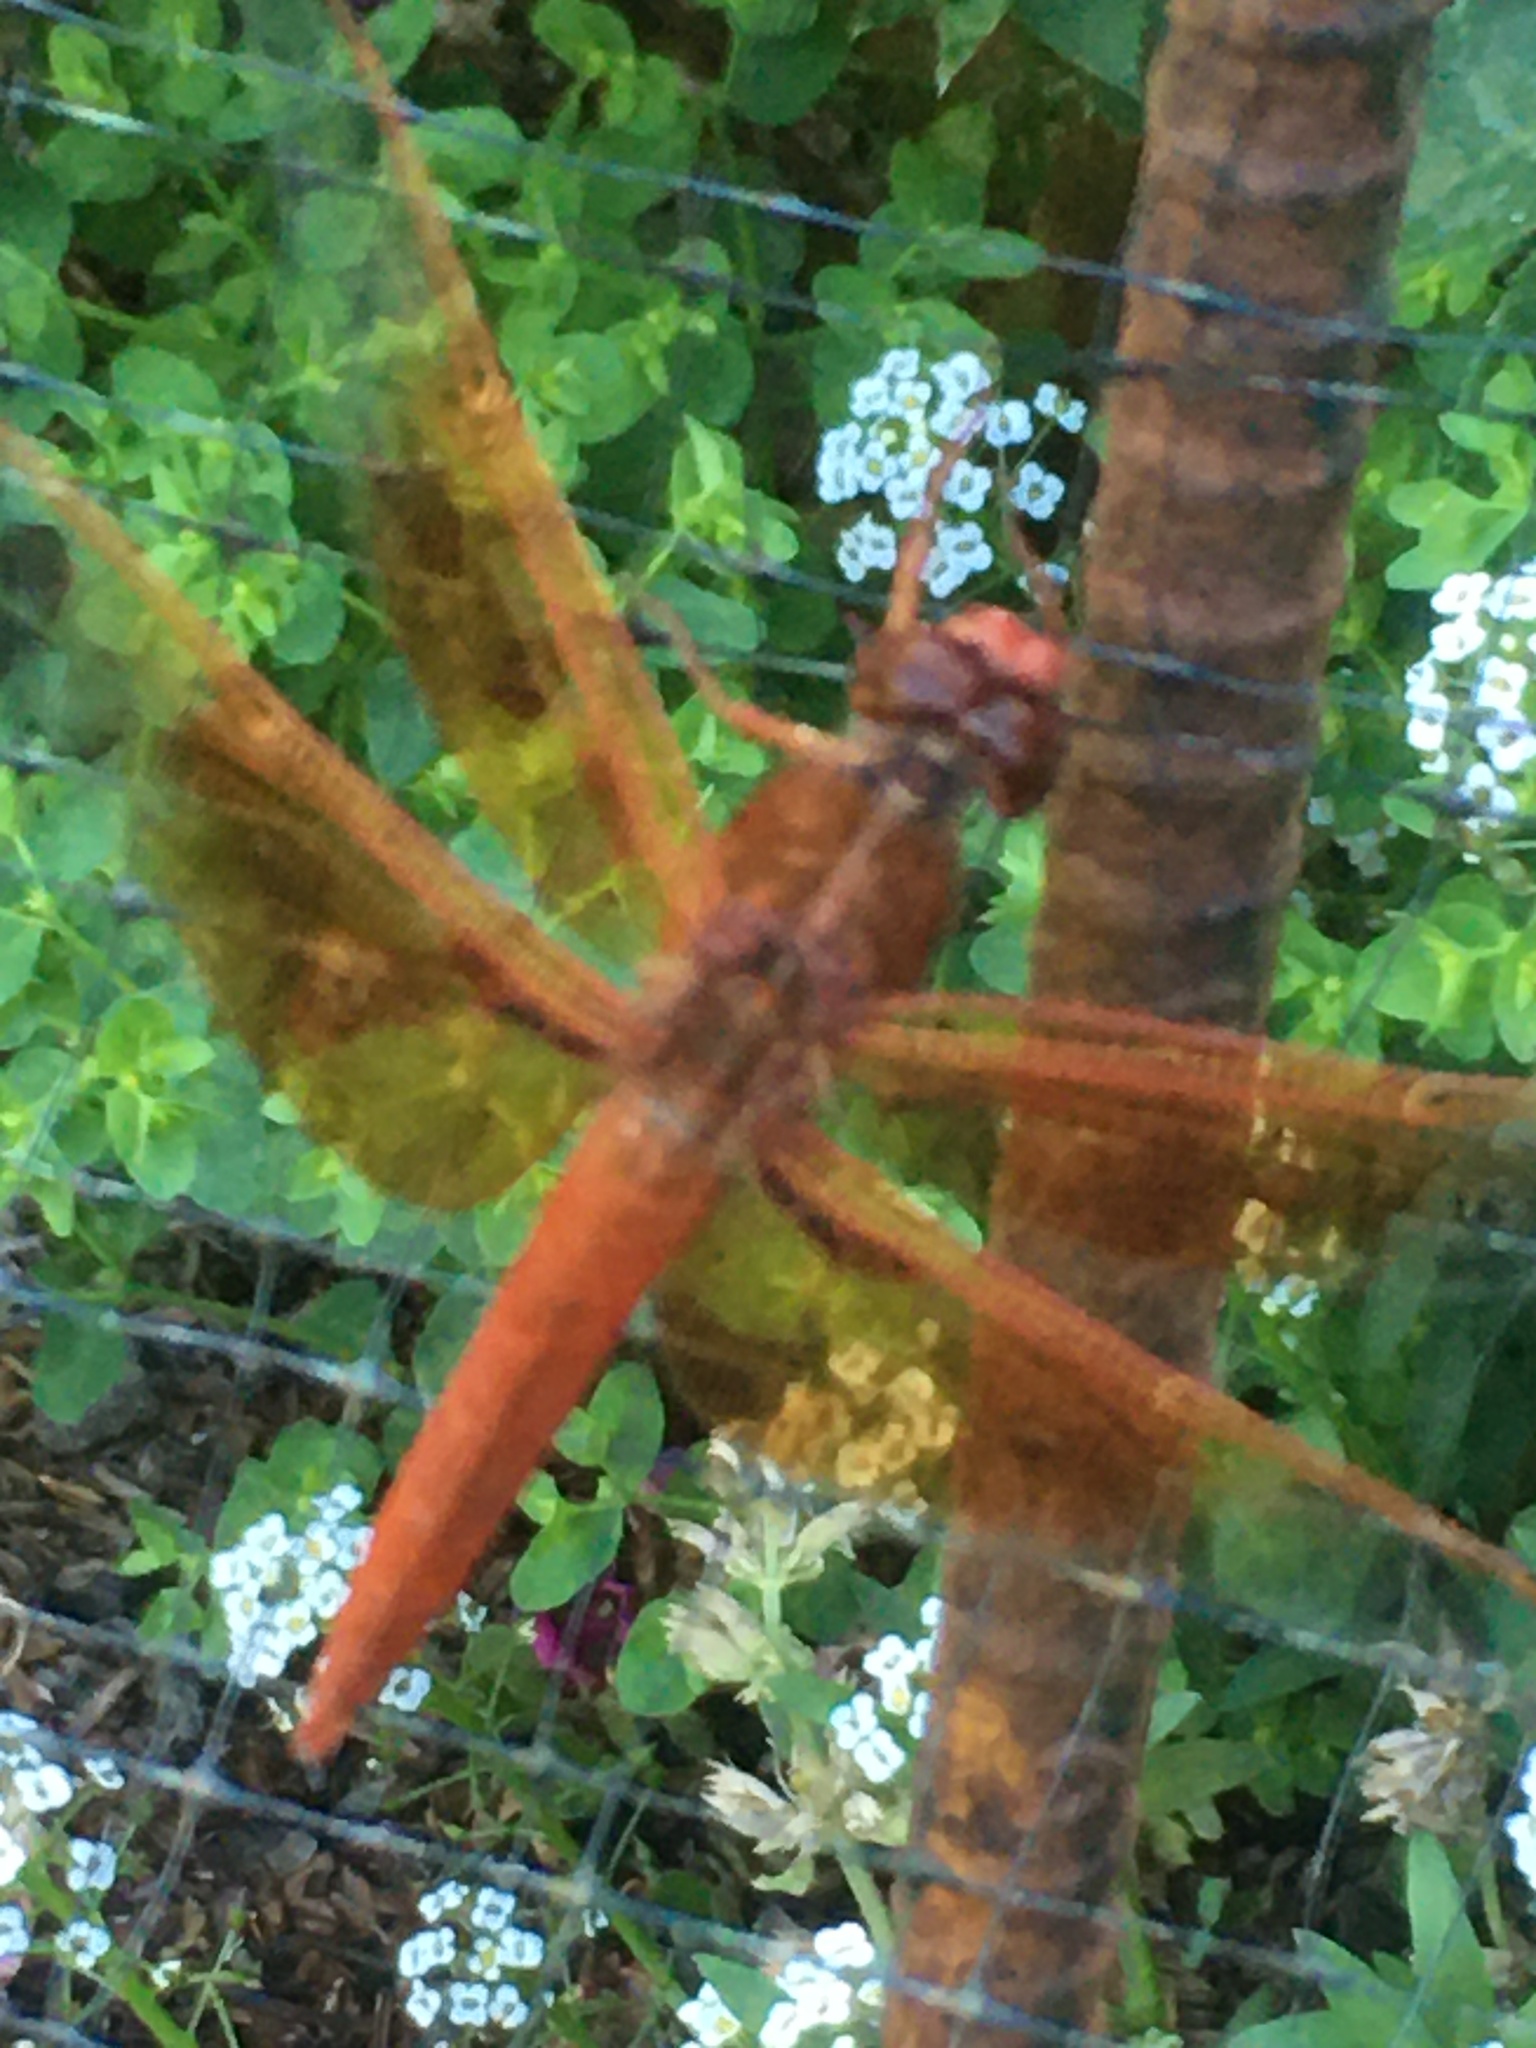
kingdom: Animalia
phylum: Arthropoda
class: Insecta
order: Odonata
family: Libellulidae
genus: Libellula
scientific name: Libellula saturata
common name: Flame skimmer
